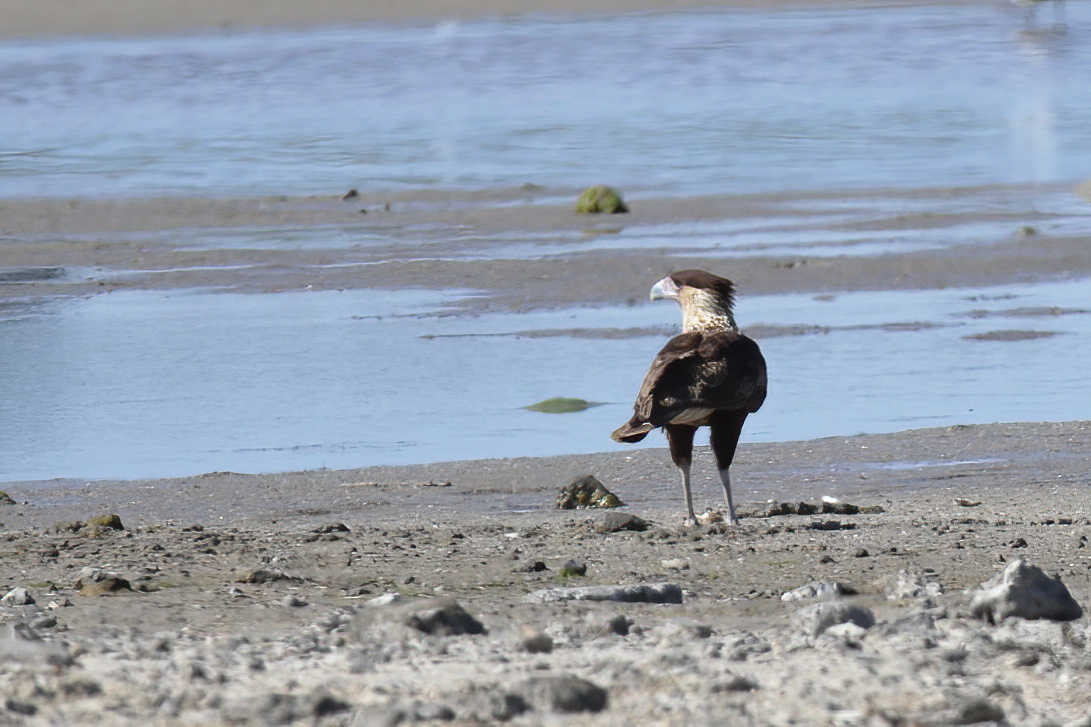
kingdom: Animalia
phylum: Chordata
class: Aves
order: Falconiformes
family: Falconidae
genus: Caracara
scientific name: Caracara plancus
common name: Southern caracara
